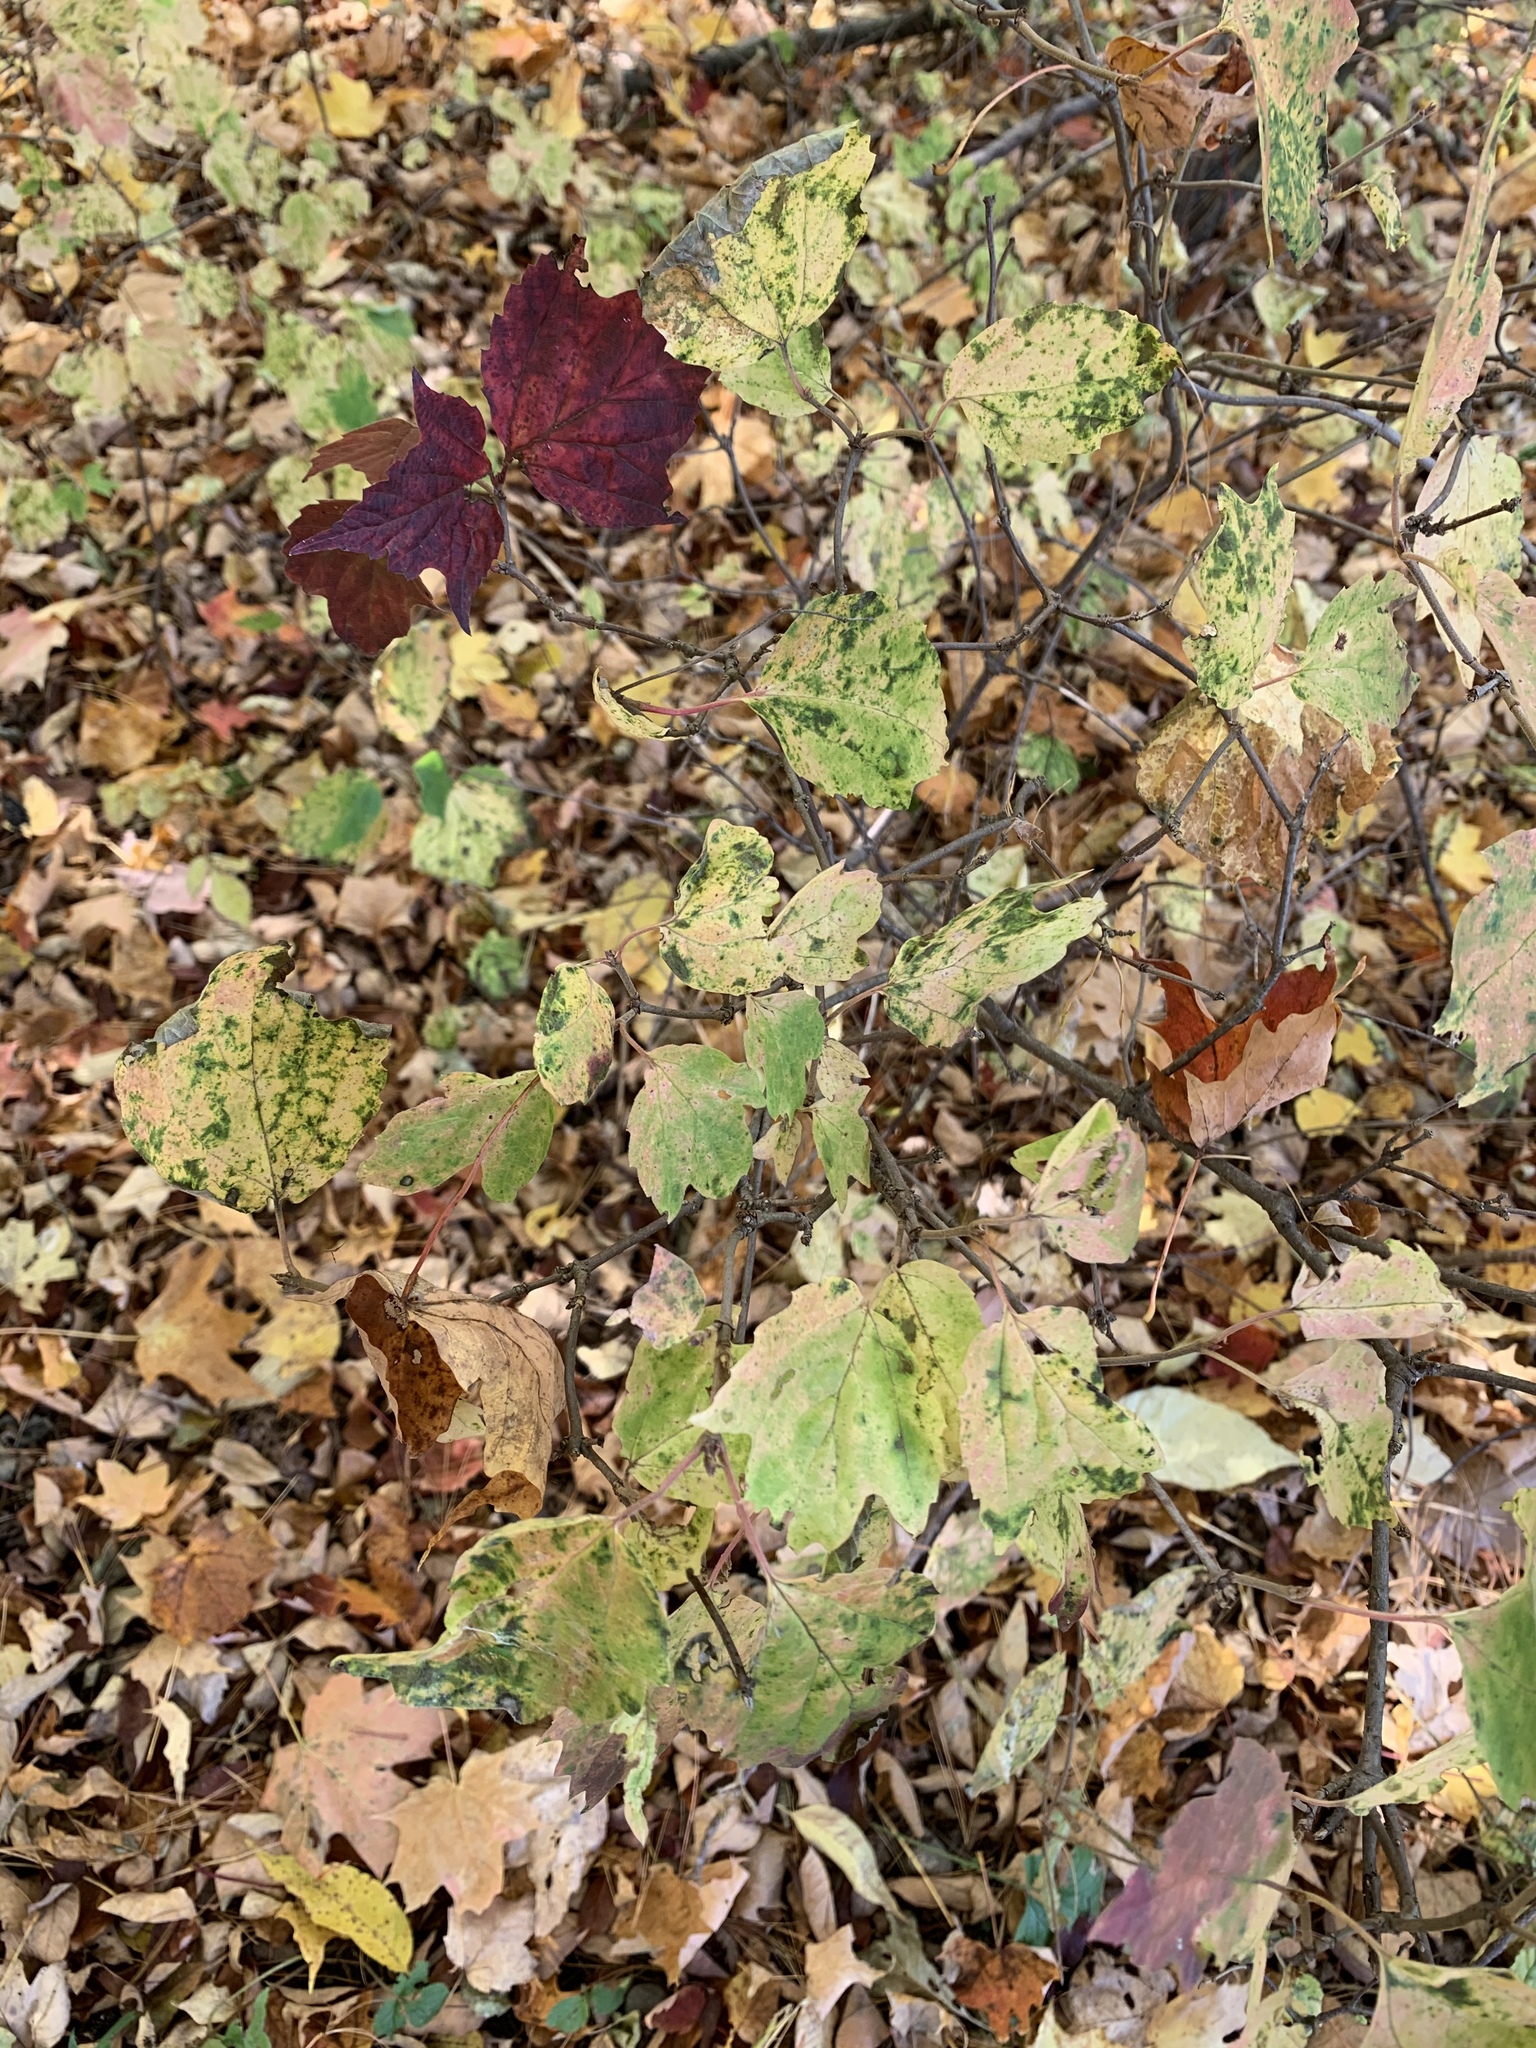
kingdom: Plantae
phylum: Tracheophyta
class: Magnoliopsida
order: Dipsacales
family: Viburnaceae
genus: Viburnum
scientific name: Viburnum acerifolium
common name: Dockmackie
